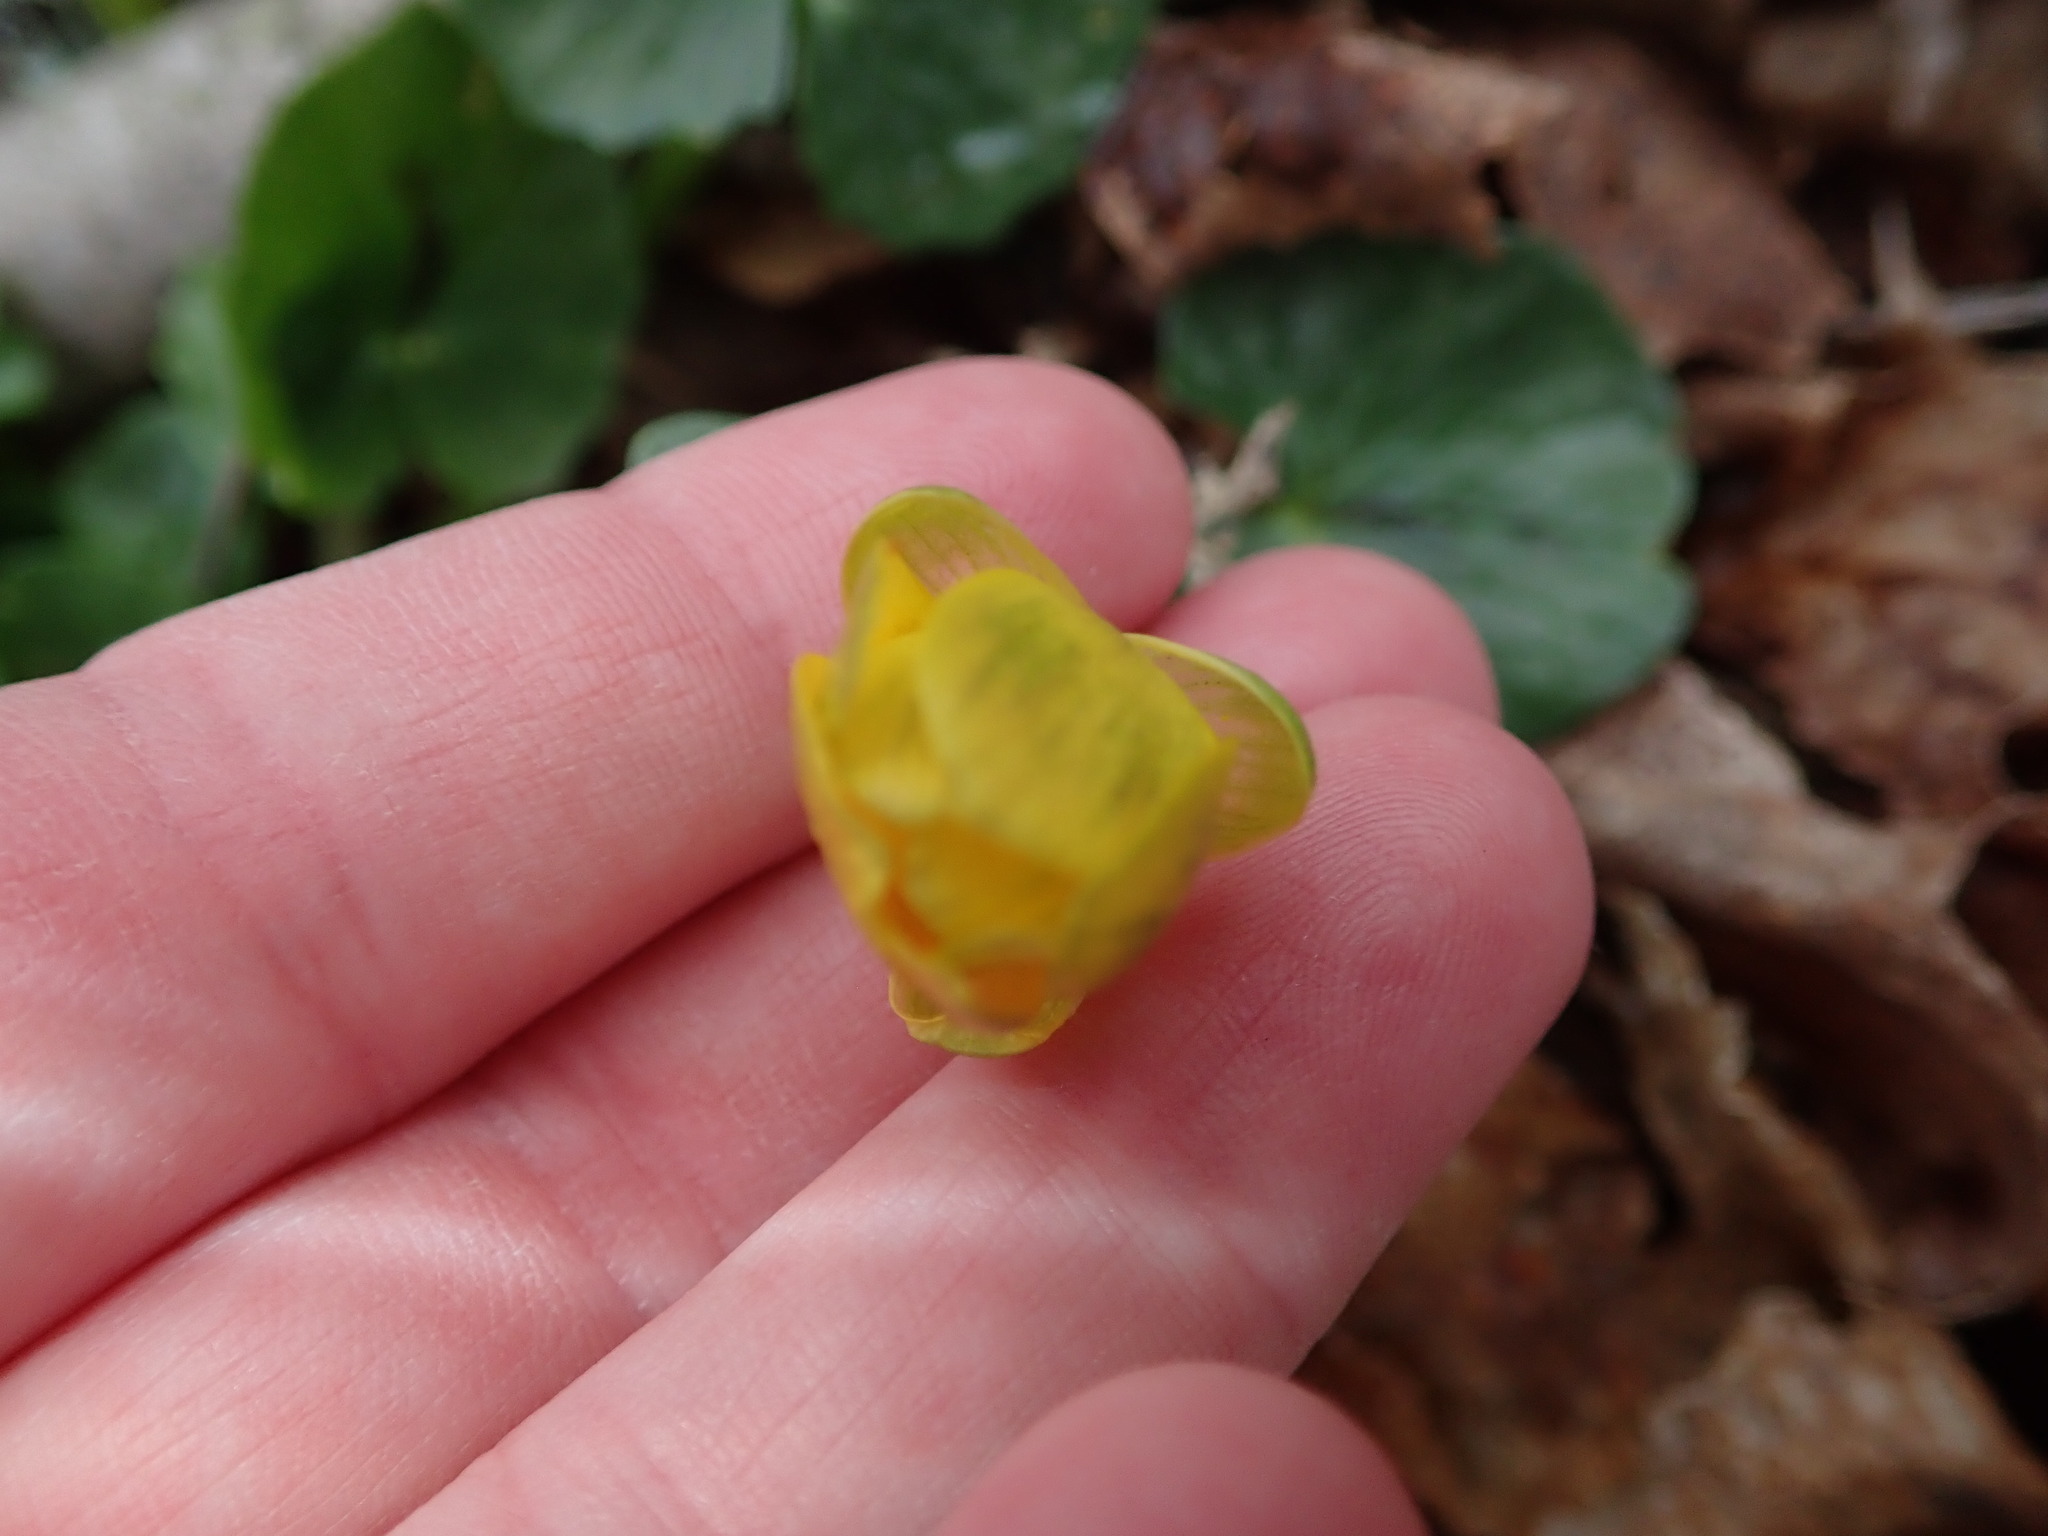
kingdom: Plantae
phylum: Tracheophyta
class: Magnoliopsida
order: Ranunculales
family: Ranunculaceae
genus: Ficaria
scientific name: Ficaria verna
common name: Lesser celandine
